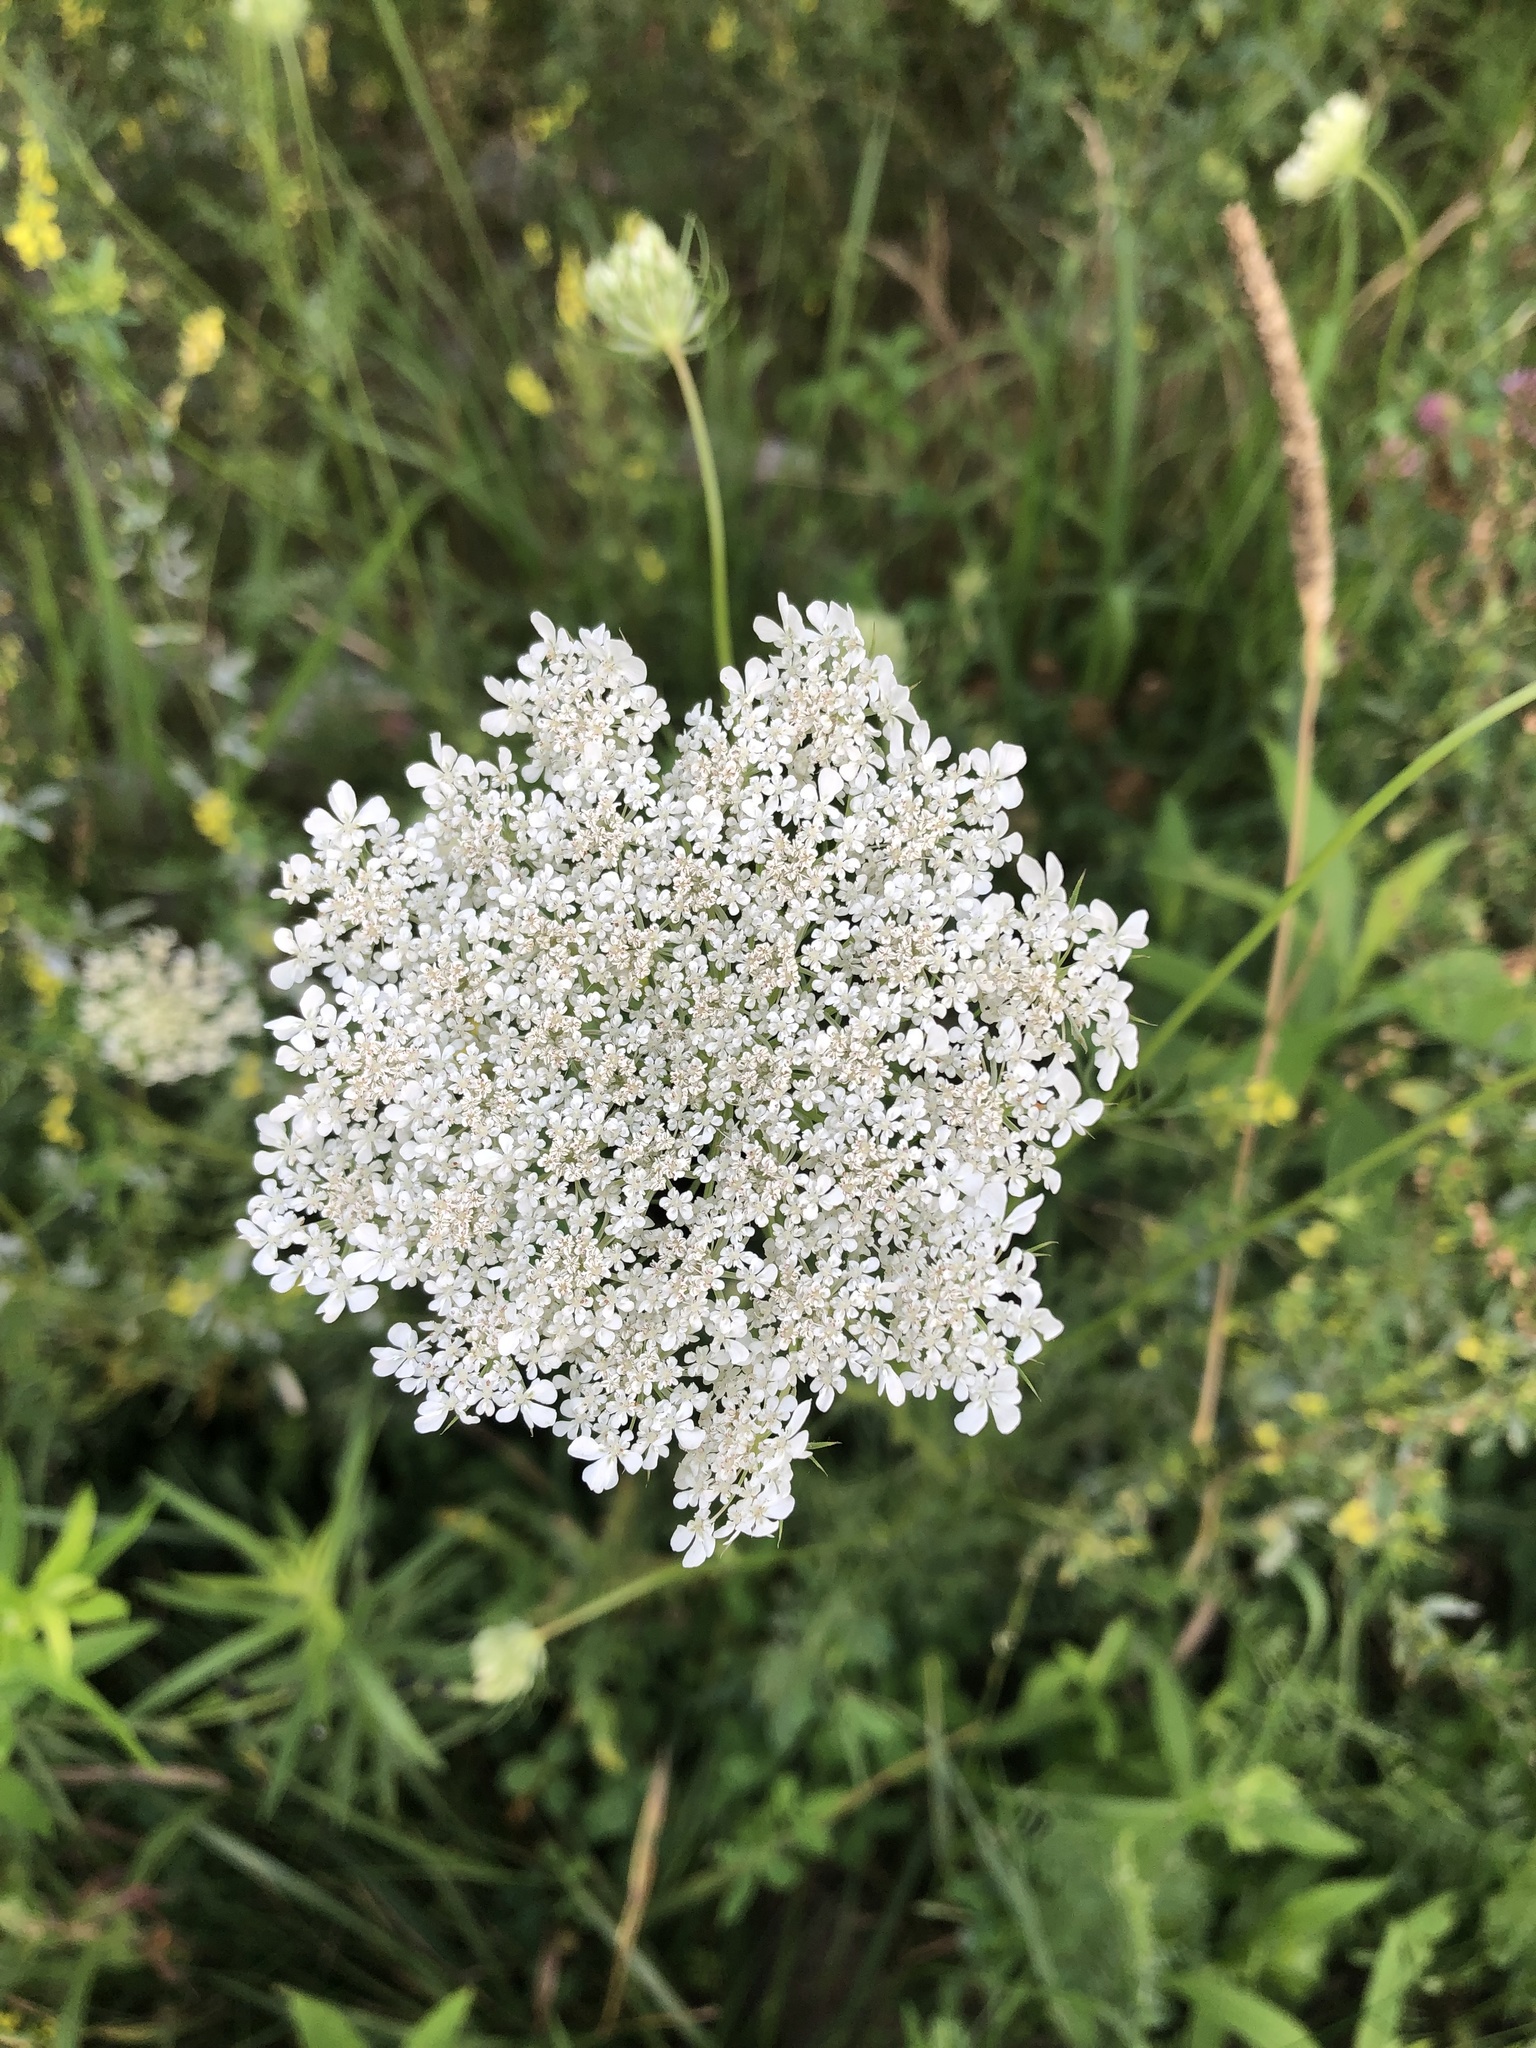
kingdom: Plantae
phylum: Tracheophyta
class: Magnoliopsida
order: Apiales
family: Apiaceae
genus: Daucus
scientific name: Daucus carota
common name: Wild carrot
